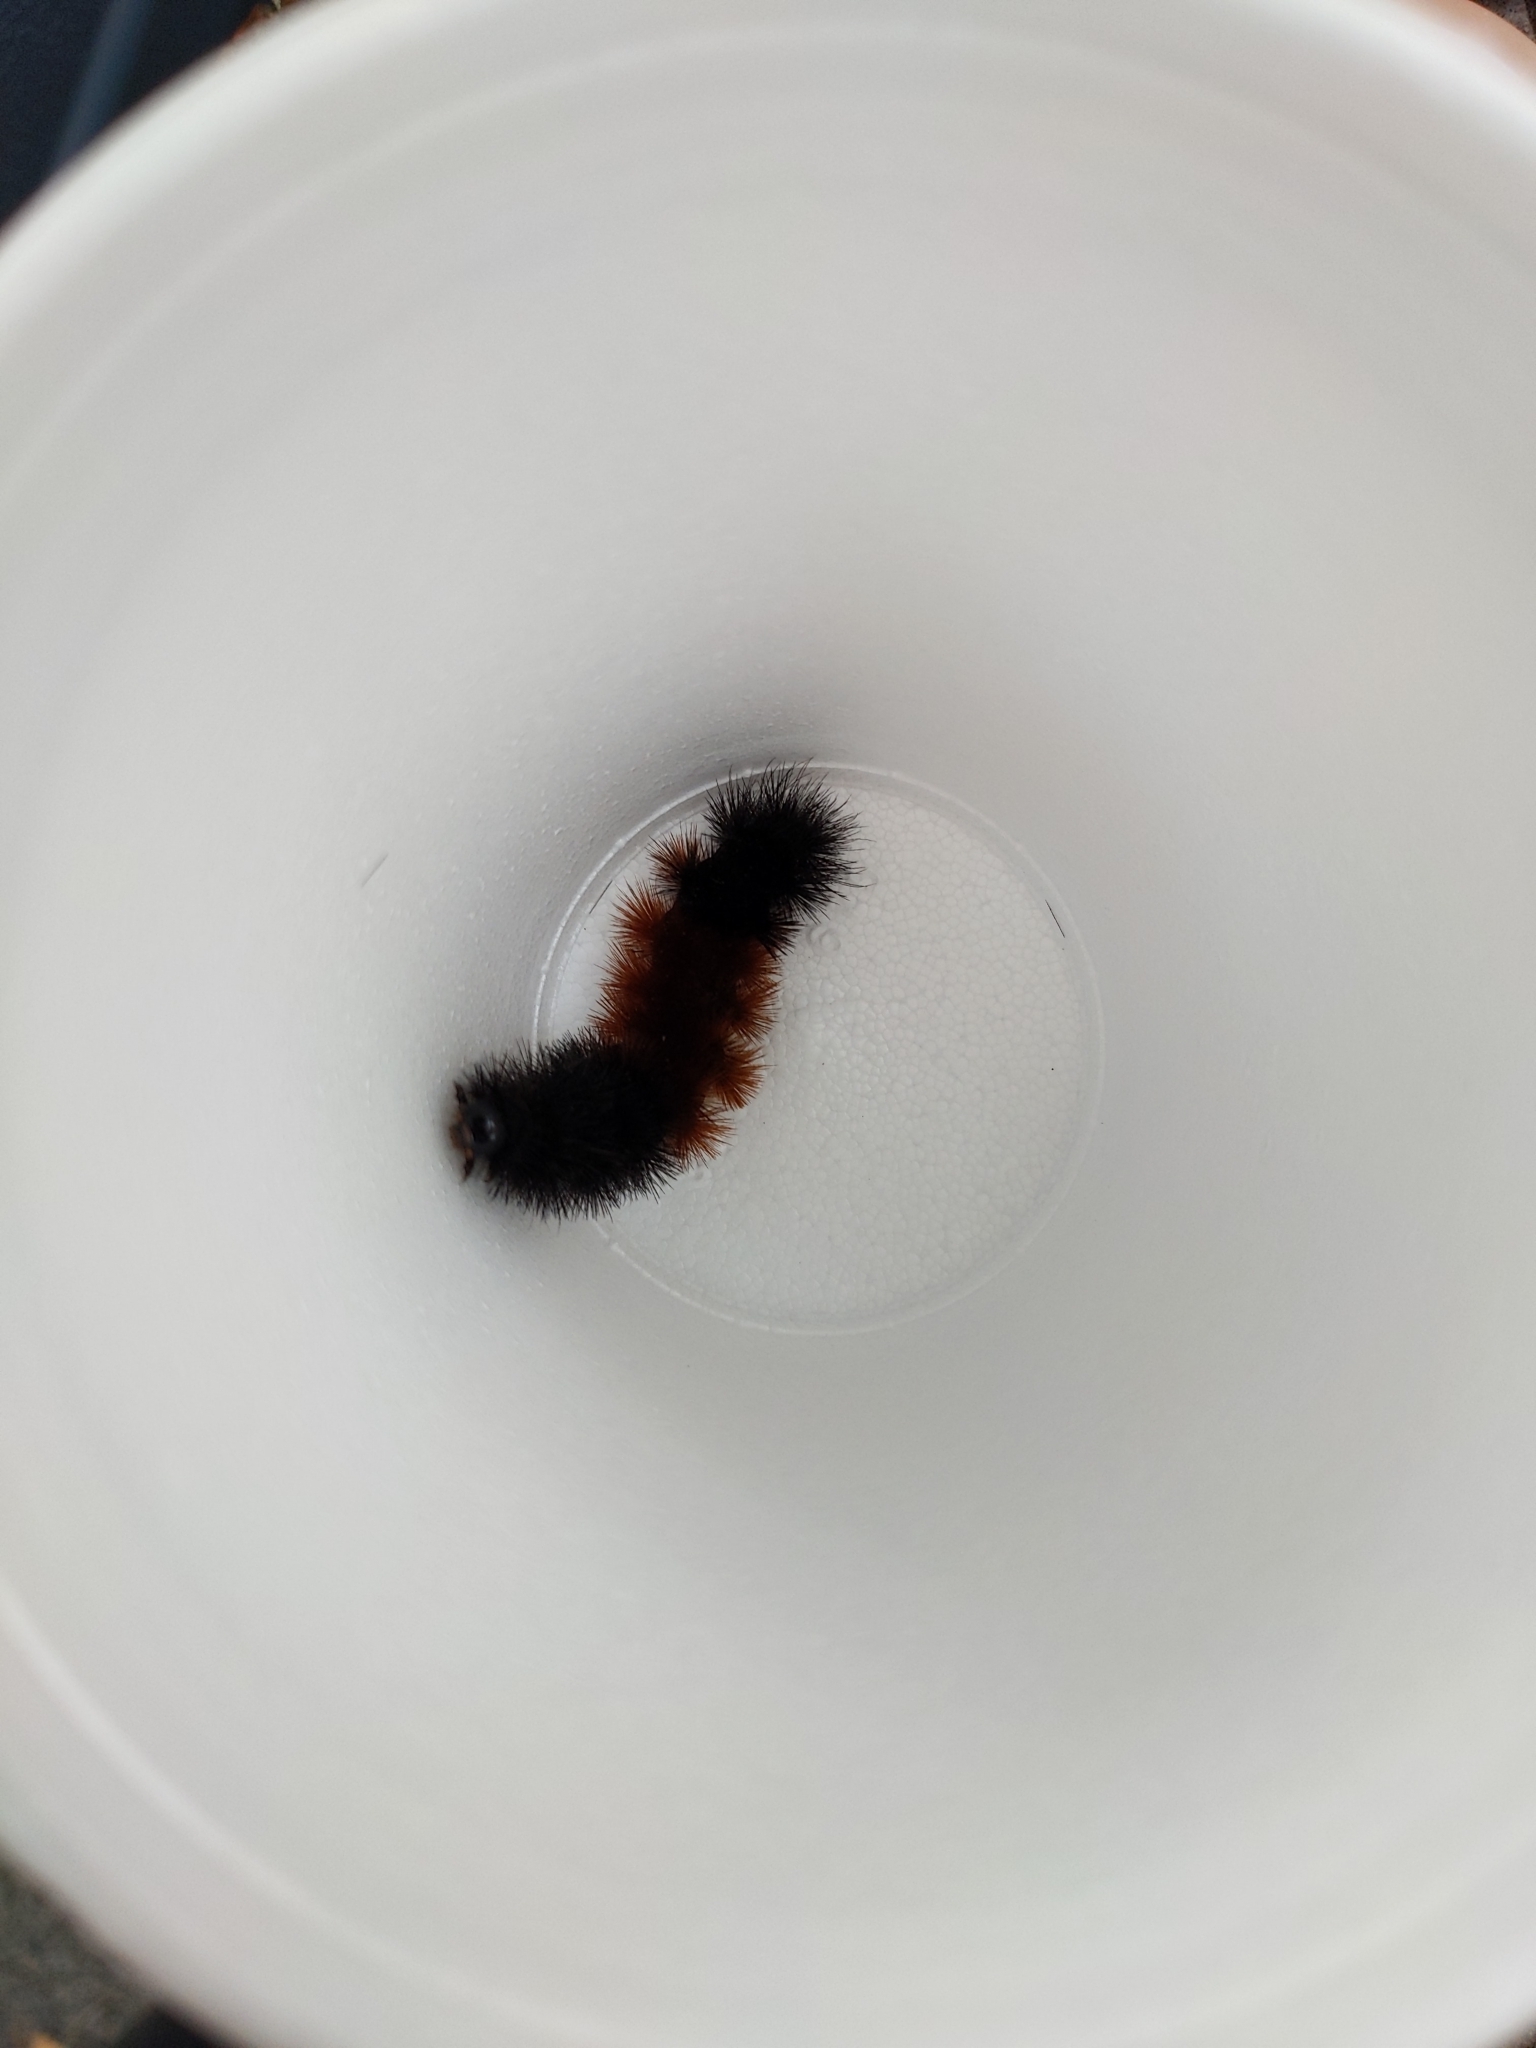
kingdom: Animalia
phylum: Arthropoda
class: Insecta
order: Lepidoptera
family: Erebidae
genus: Pyrrharctia
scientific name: Pyrrharctia isabella
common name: Isabella tiger moth
